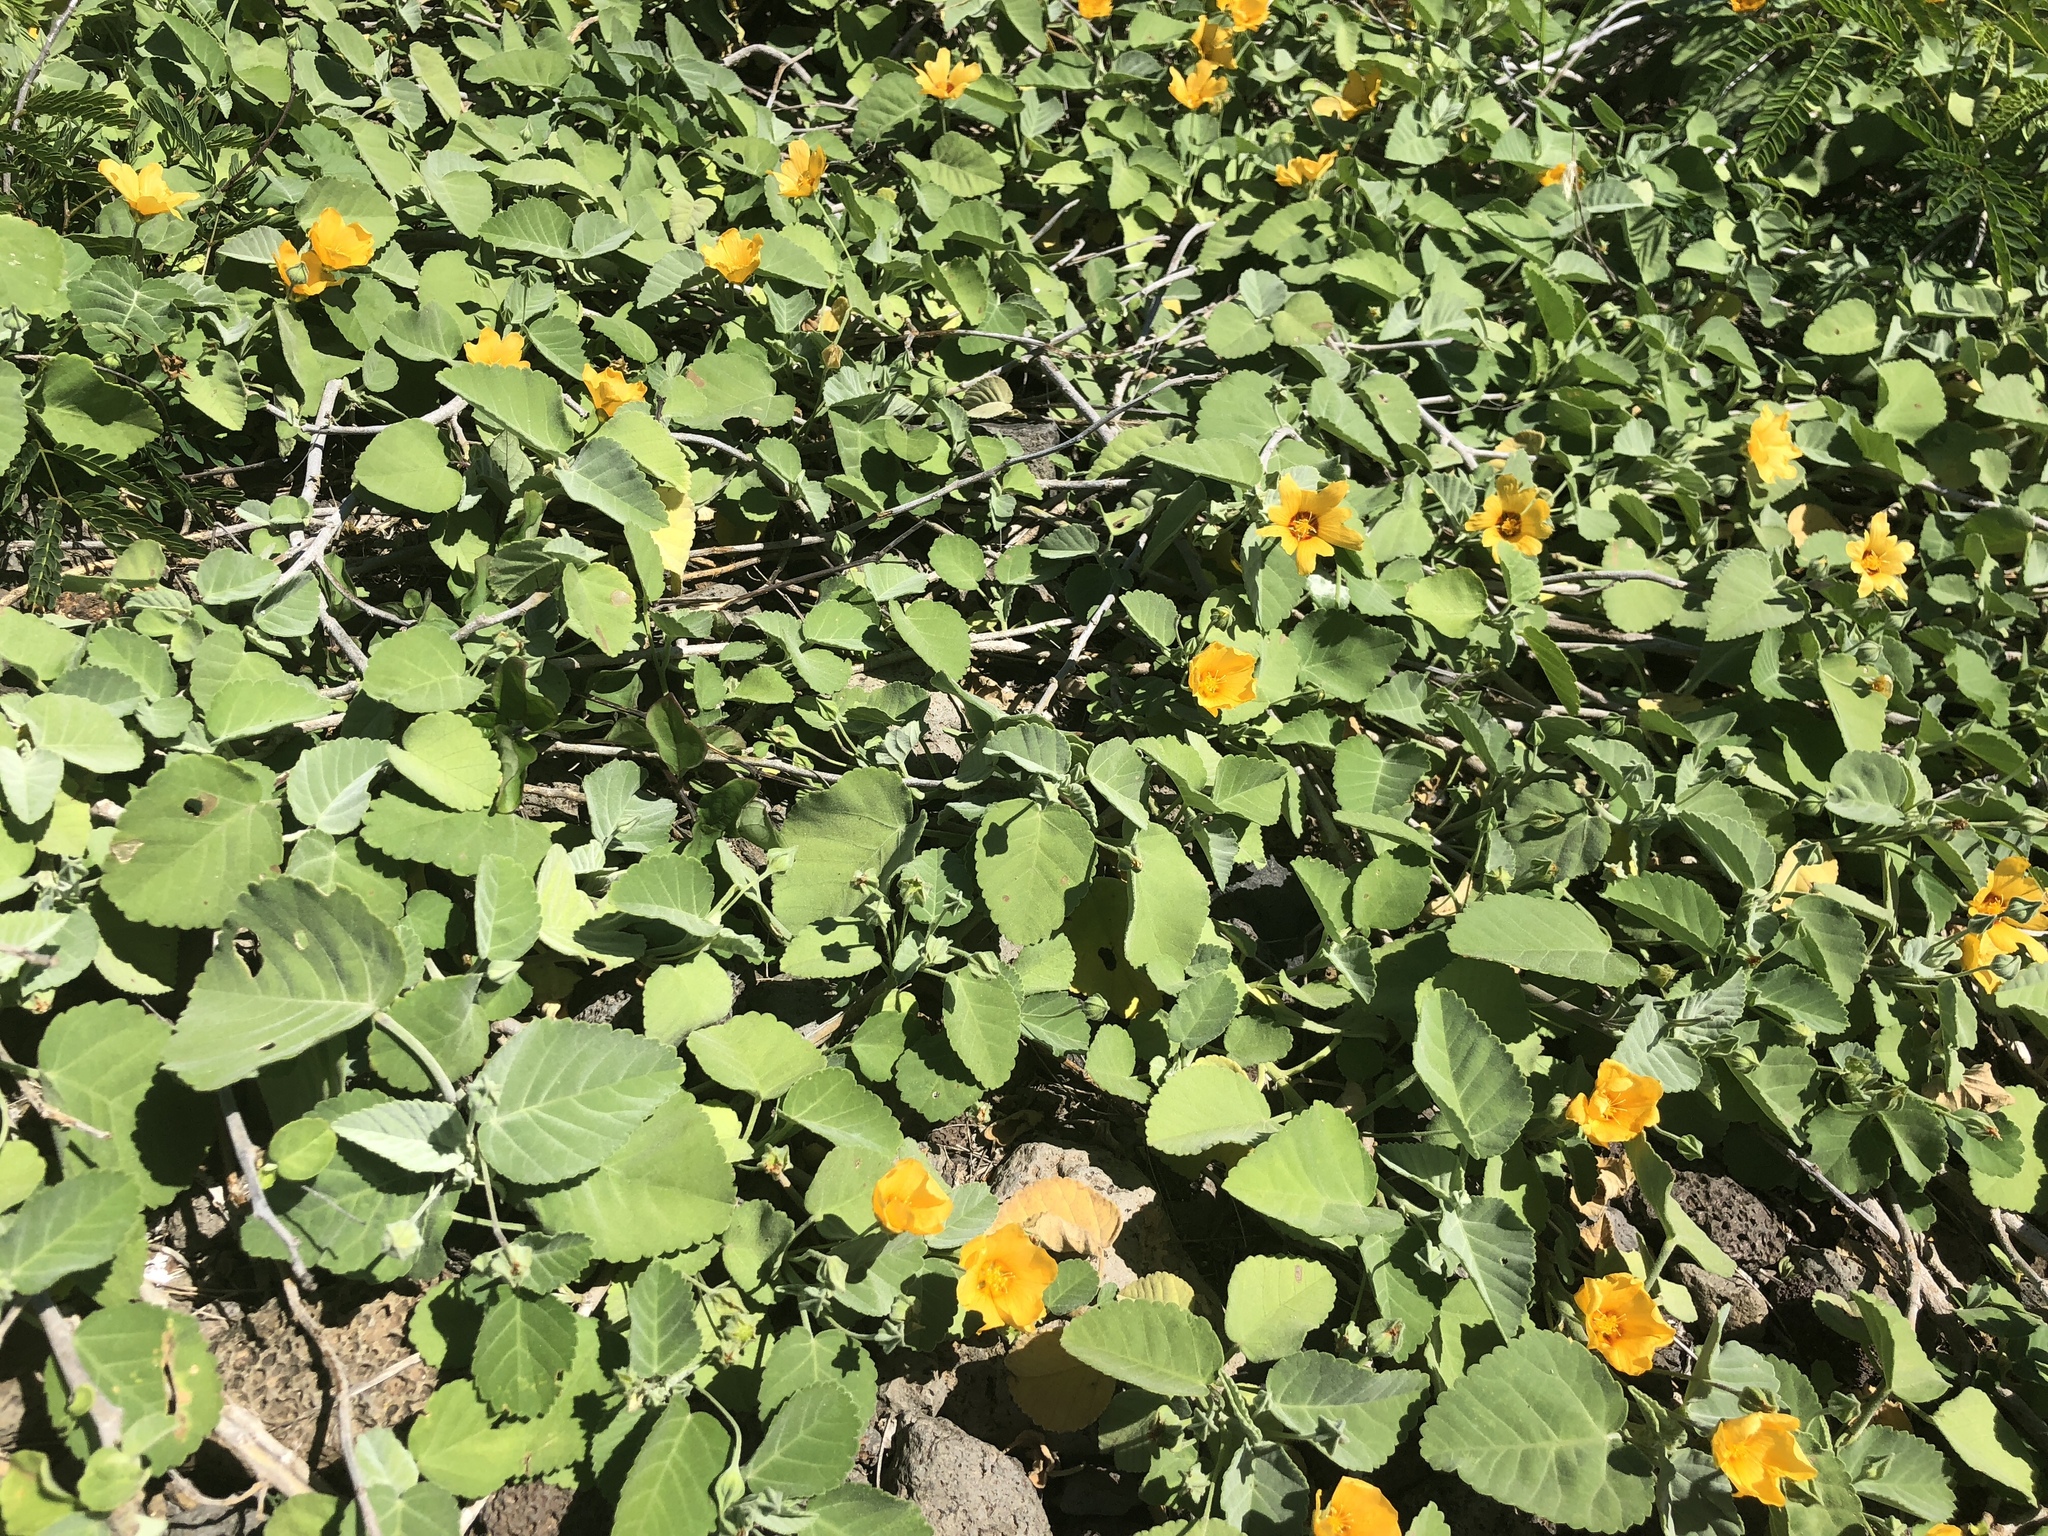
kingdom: Plantae
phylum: Tracheophyta
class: Magnoliopsida
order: Malvales
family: Malvaceae
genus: Sida
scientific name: Sida fallax
